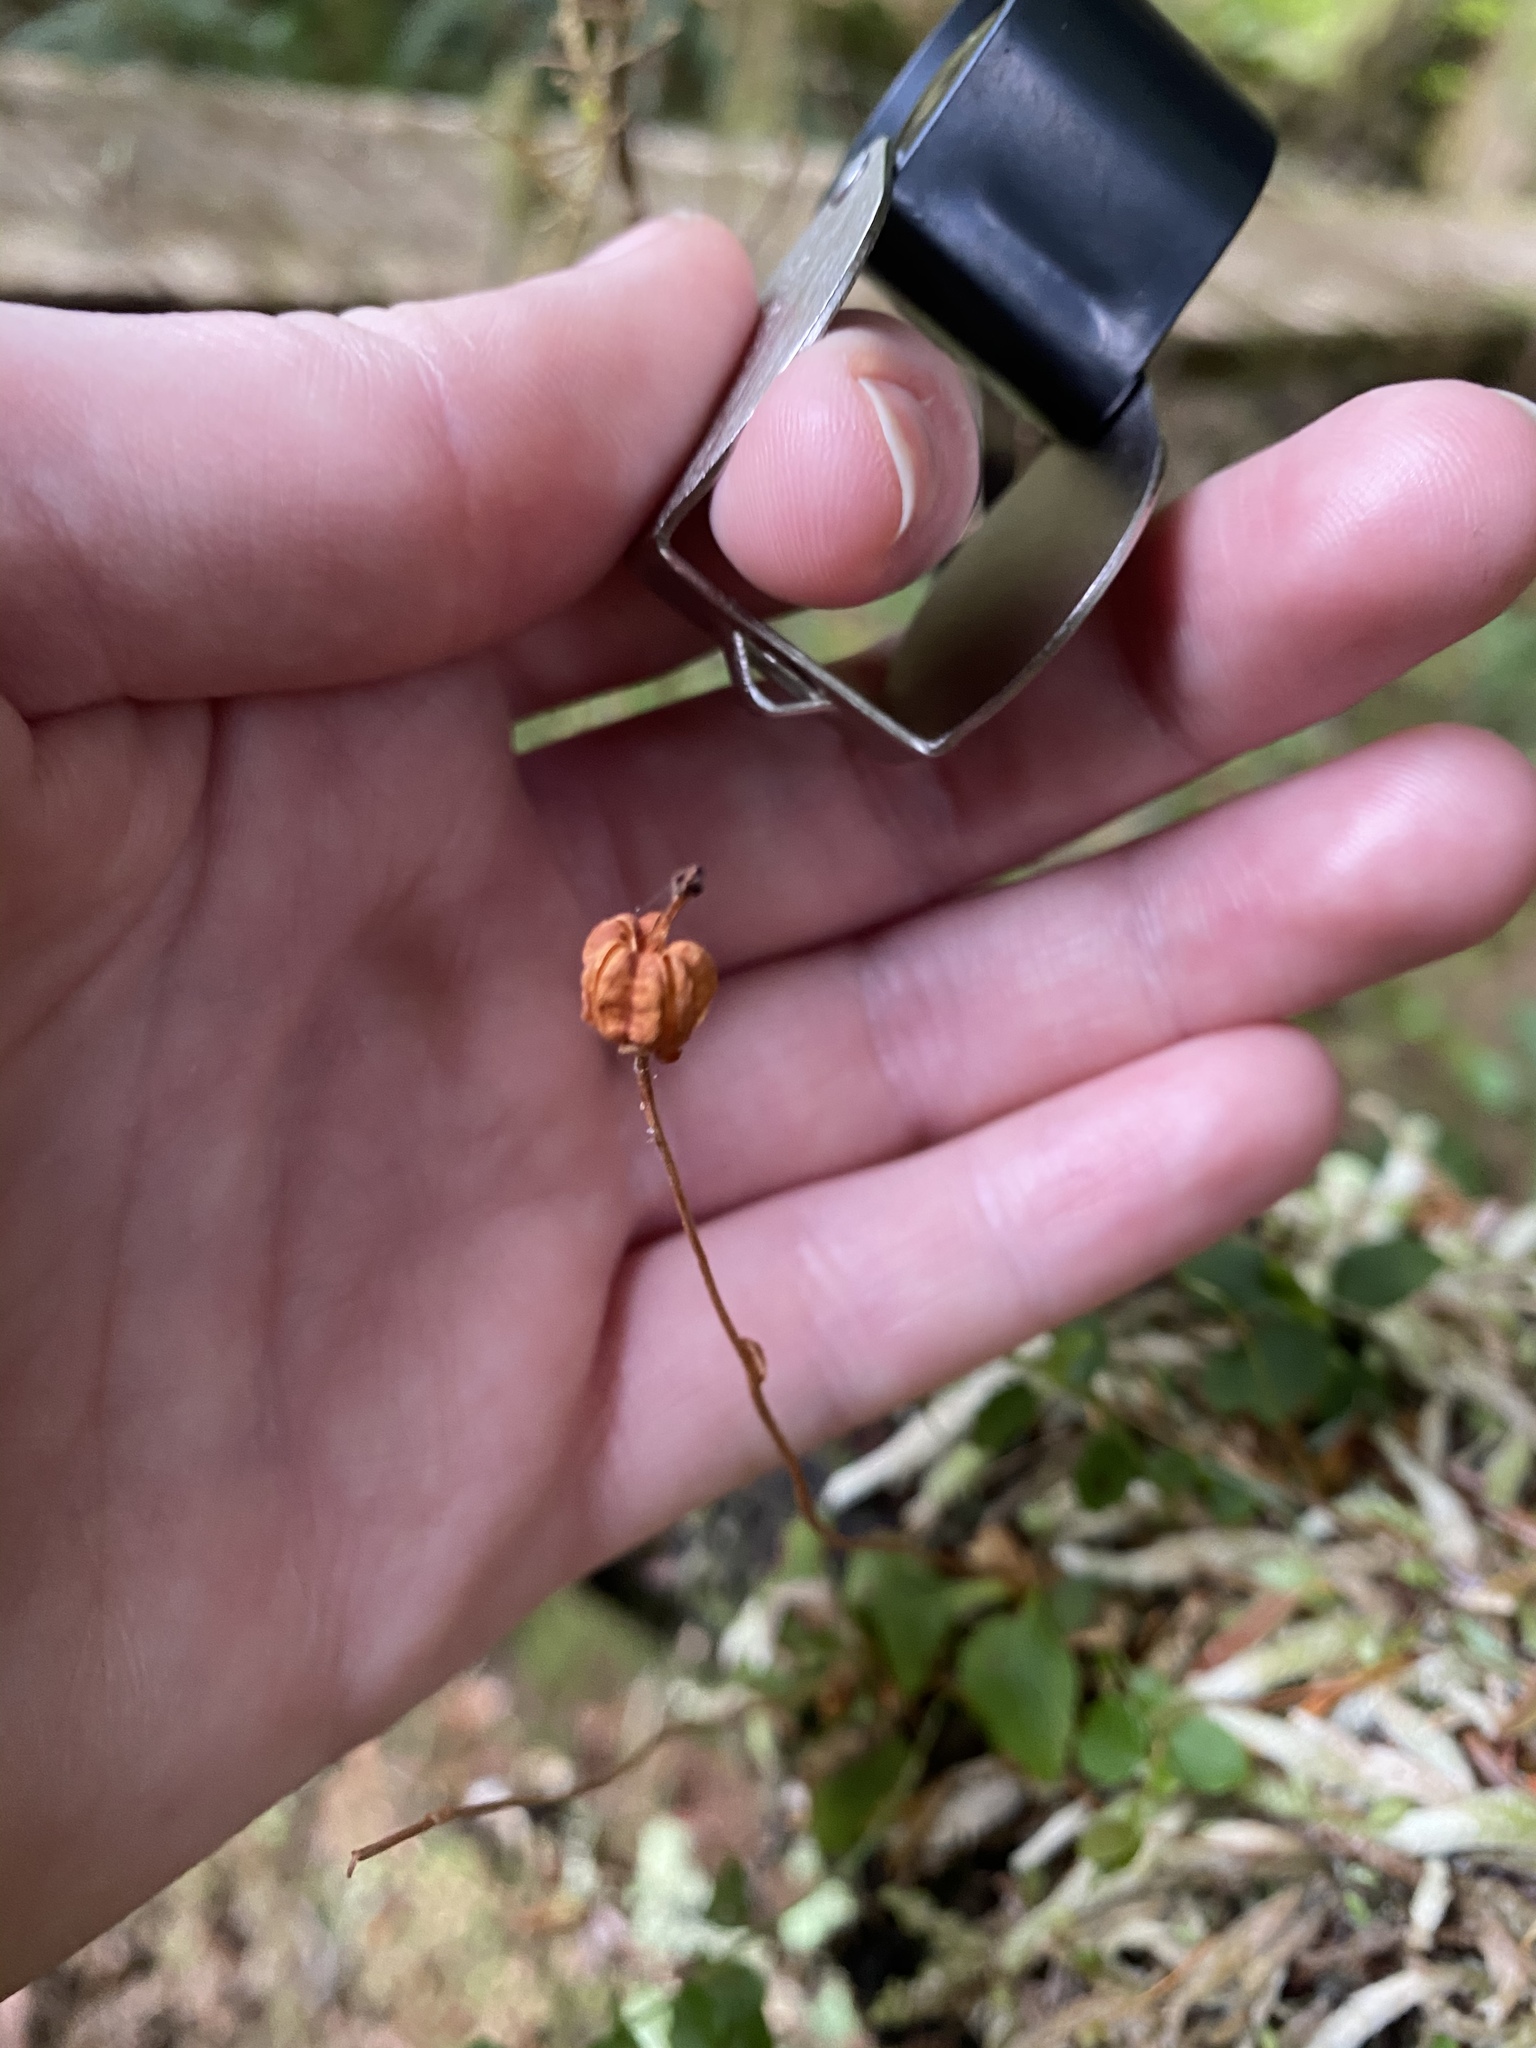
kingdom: Plantae
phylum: Tracheophyta
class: Magnoliopsida
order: Ericales
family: Ericaceae
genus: Moneses
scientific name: Moneses uniflora
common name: One-flowered wintergreen
